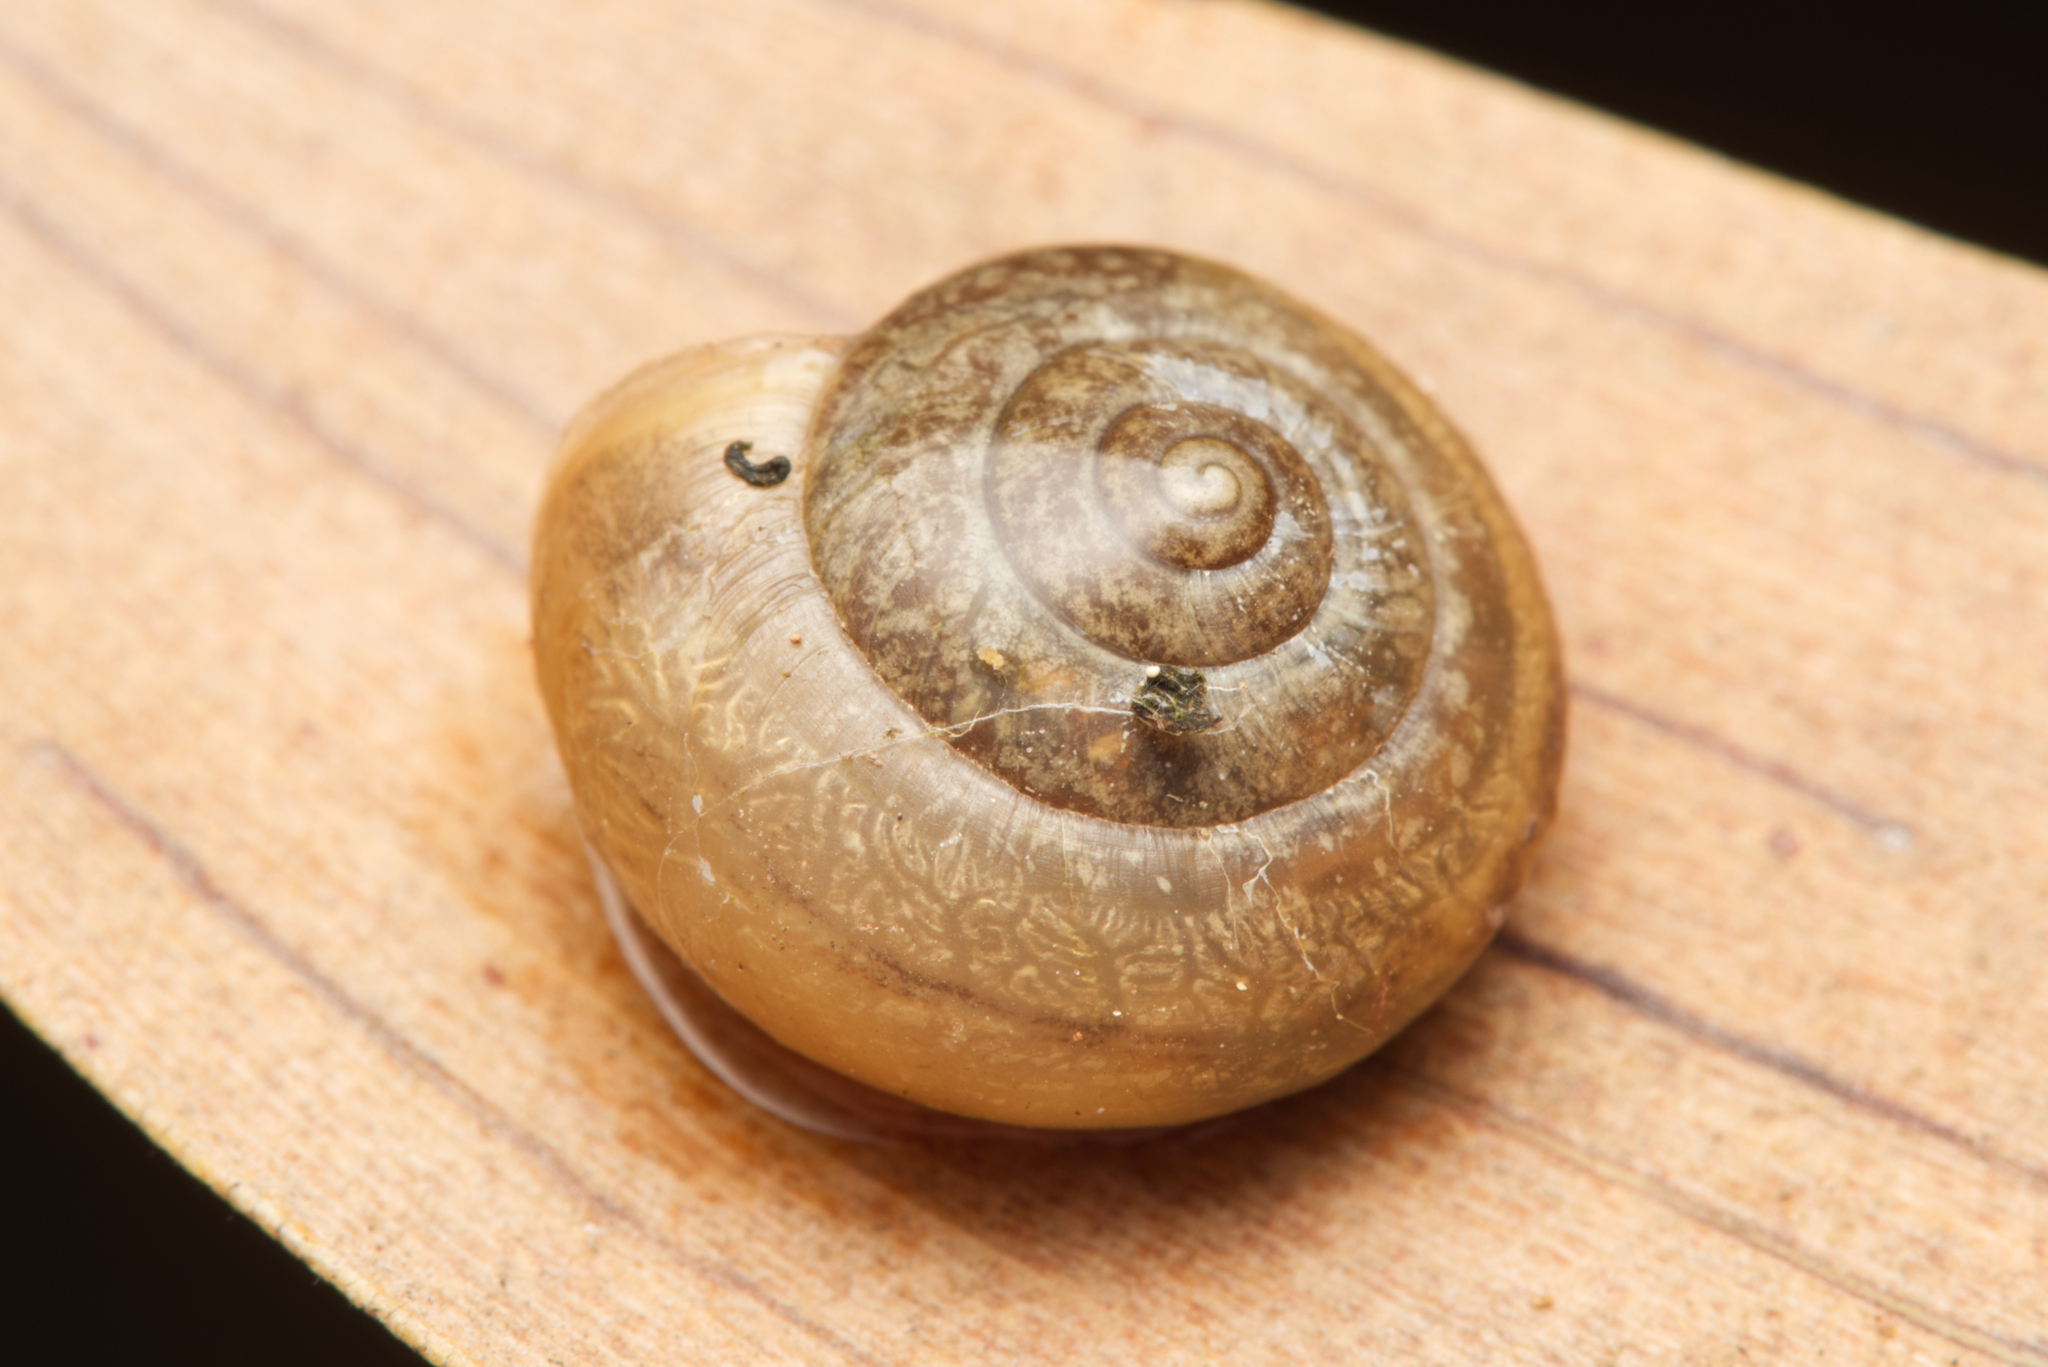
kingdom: Animalia
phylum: Mollusca
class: Gastropoda
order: Stylommatophora
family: Camaenidae
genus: Bradybaena
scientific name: Bradybaena similaris
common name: Asian trampsnail
